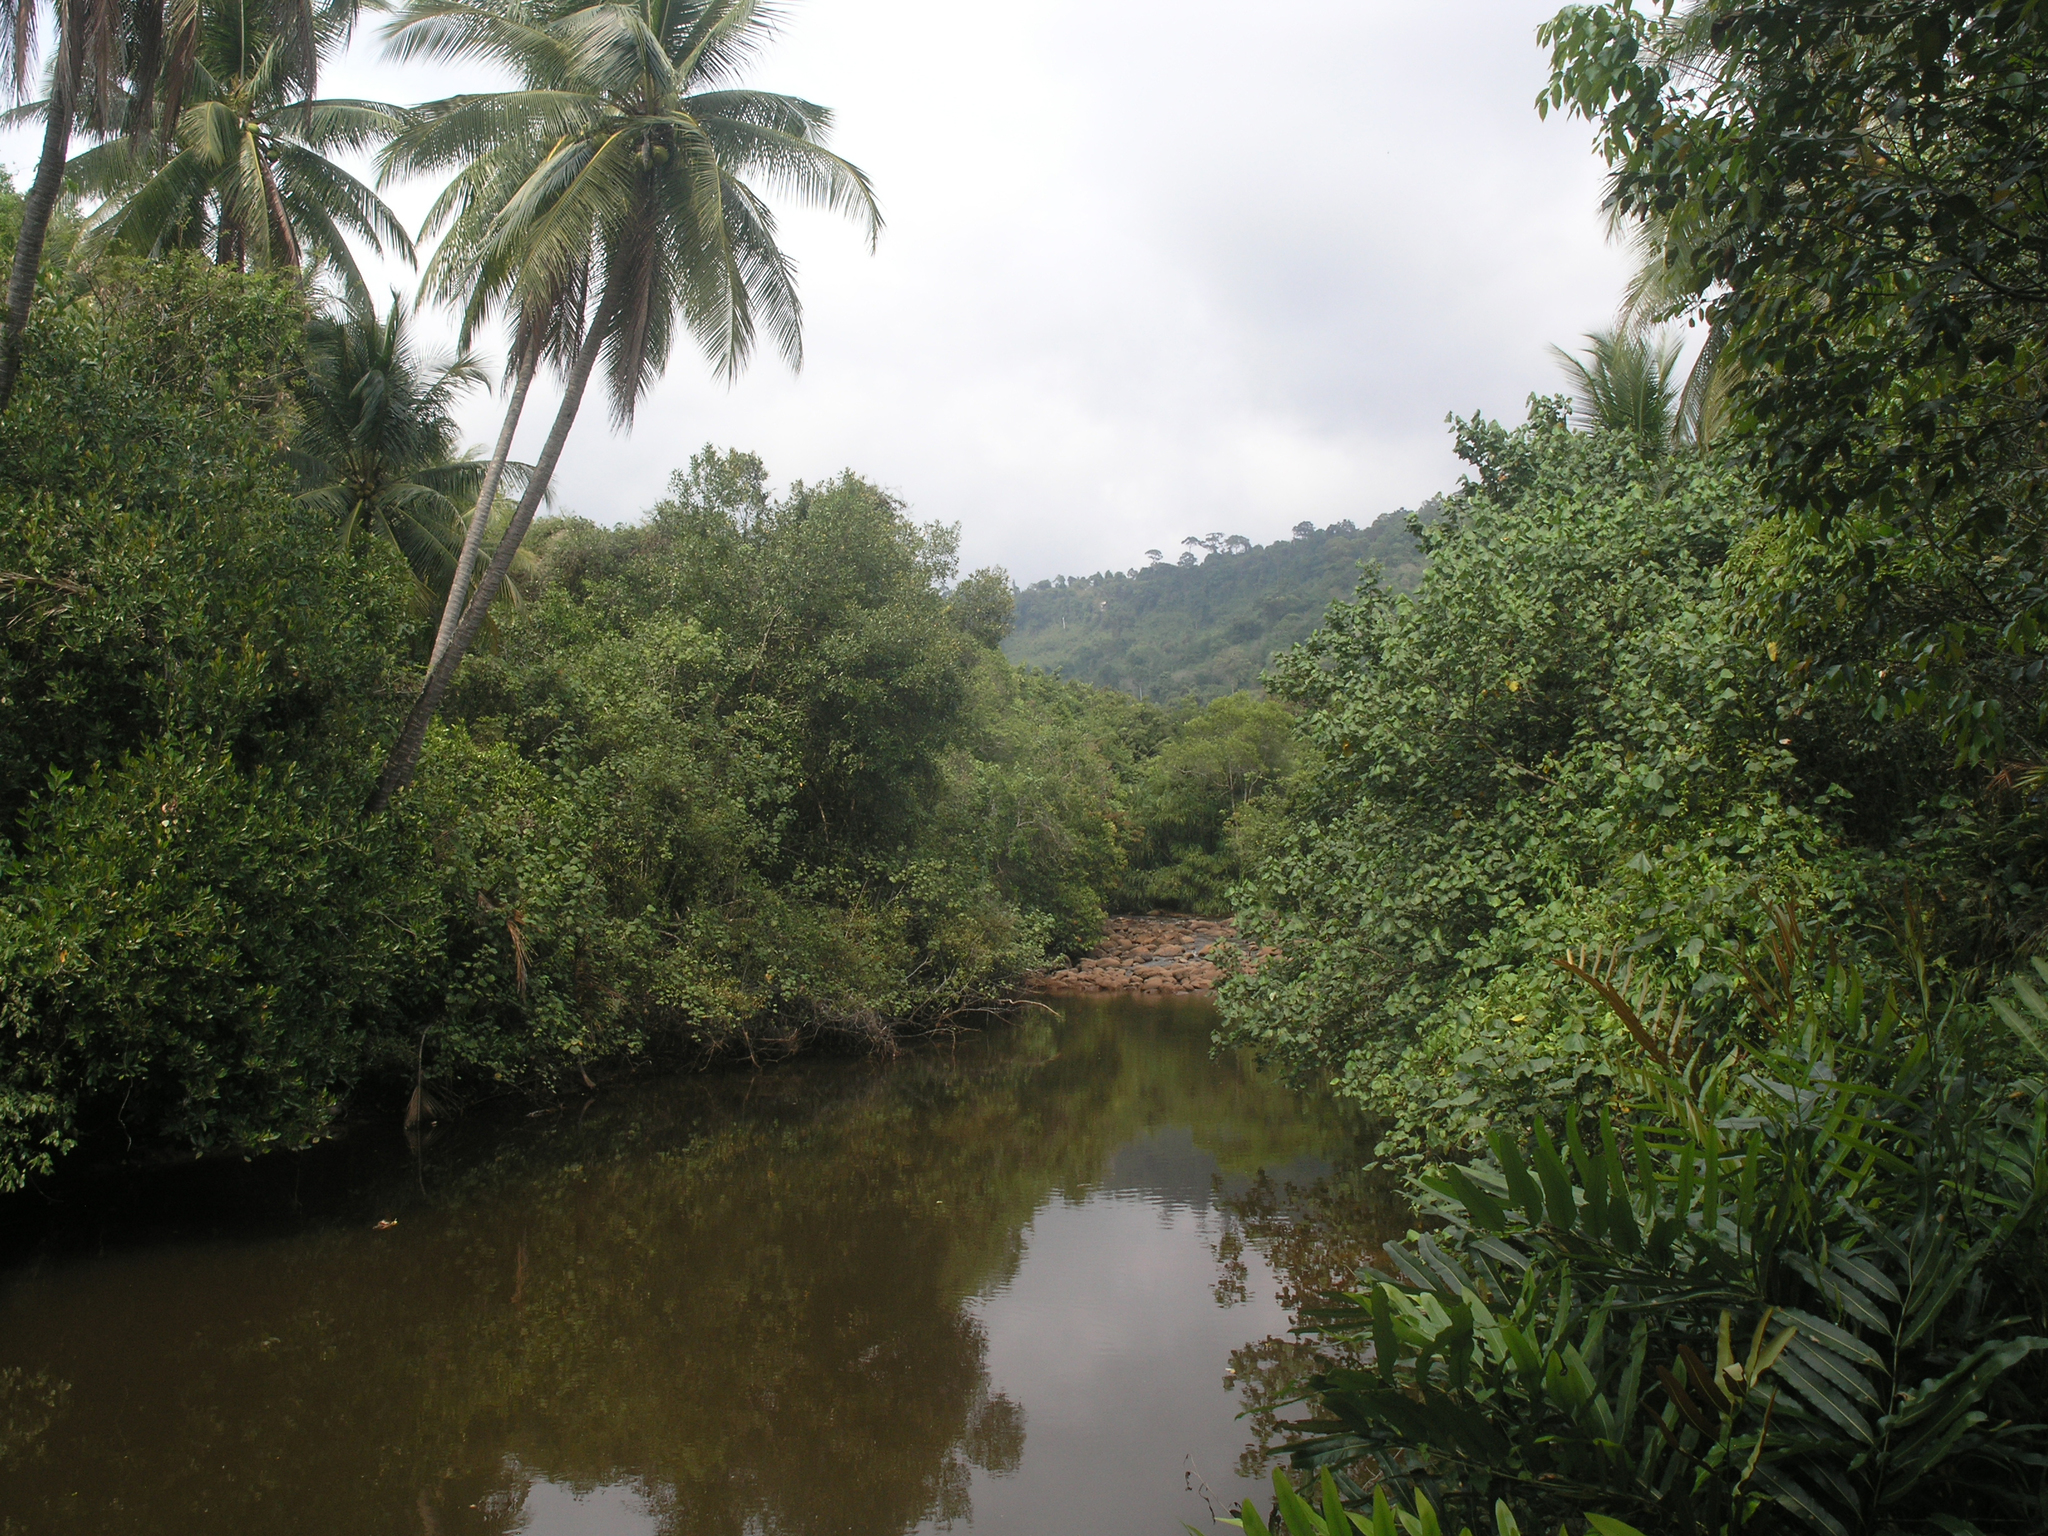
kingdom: Plantae
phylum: Tracheophyta
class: Liliopsida
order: Arecales
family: Arecaceae
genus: Cocos
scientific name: Cocos nucifera
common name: Coconut palm
